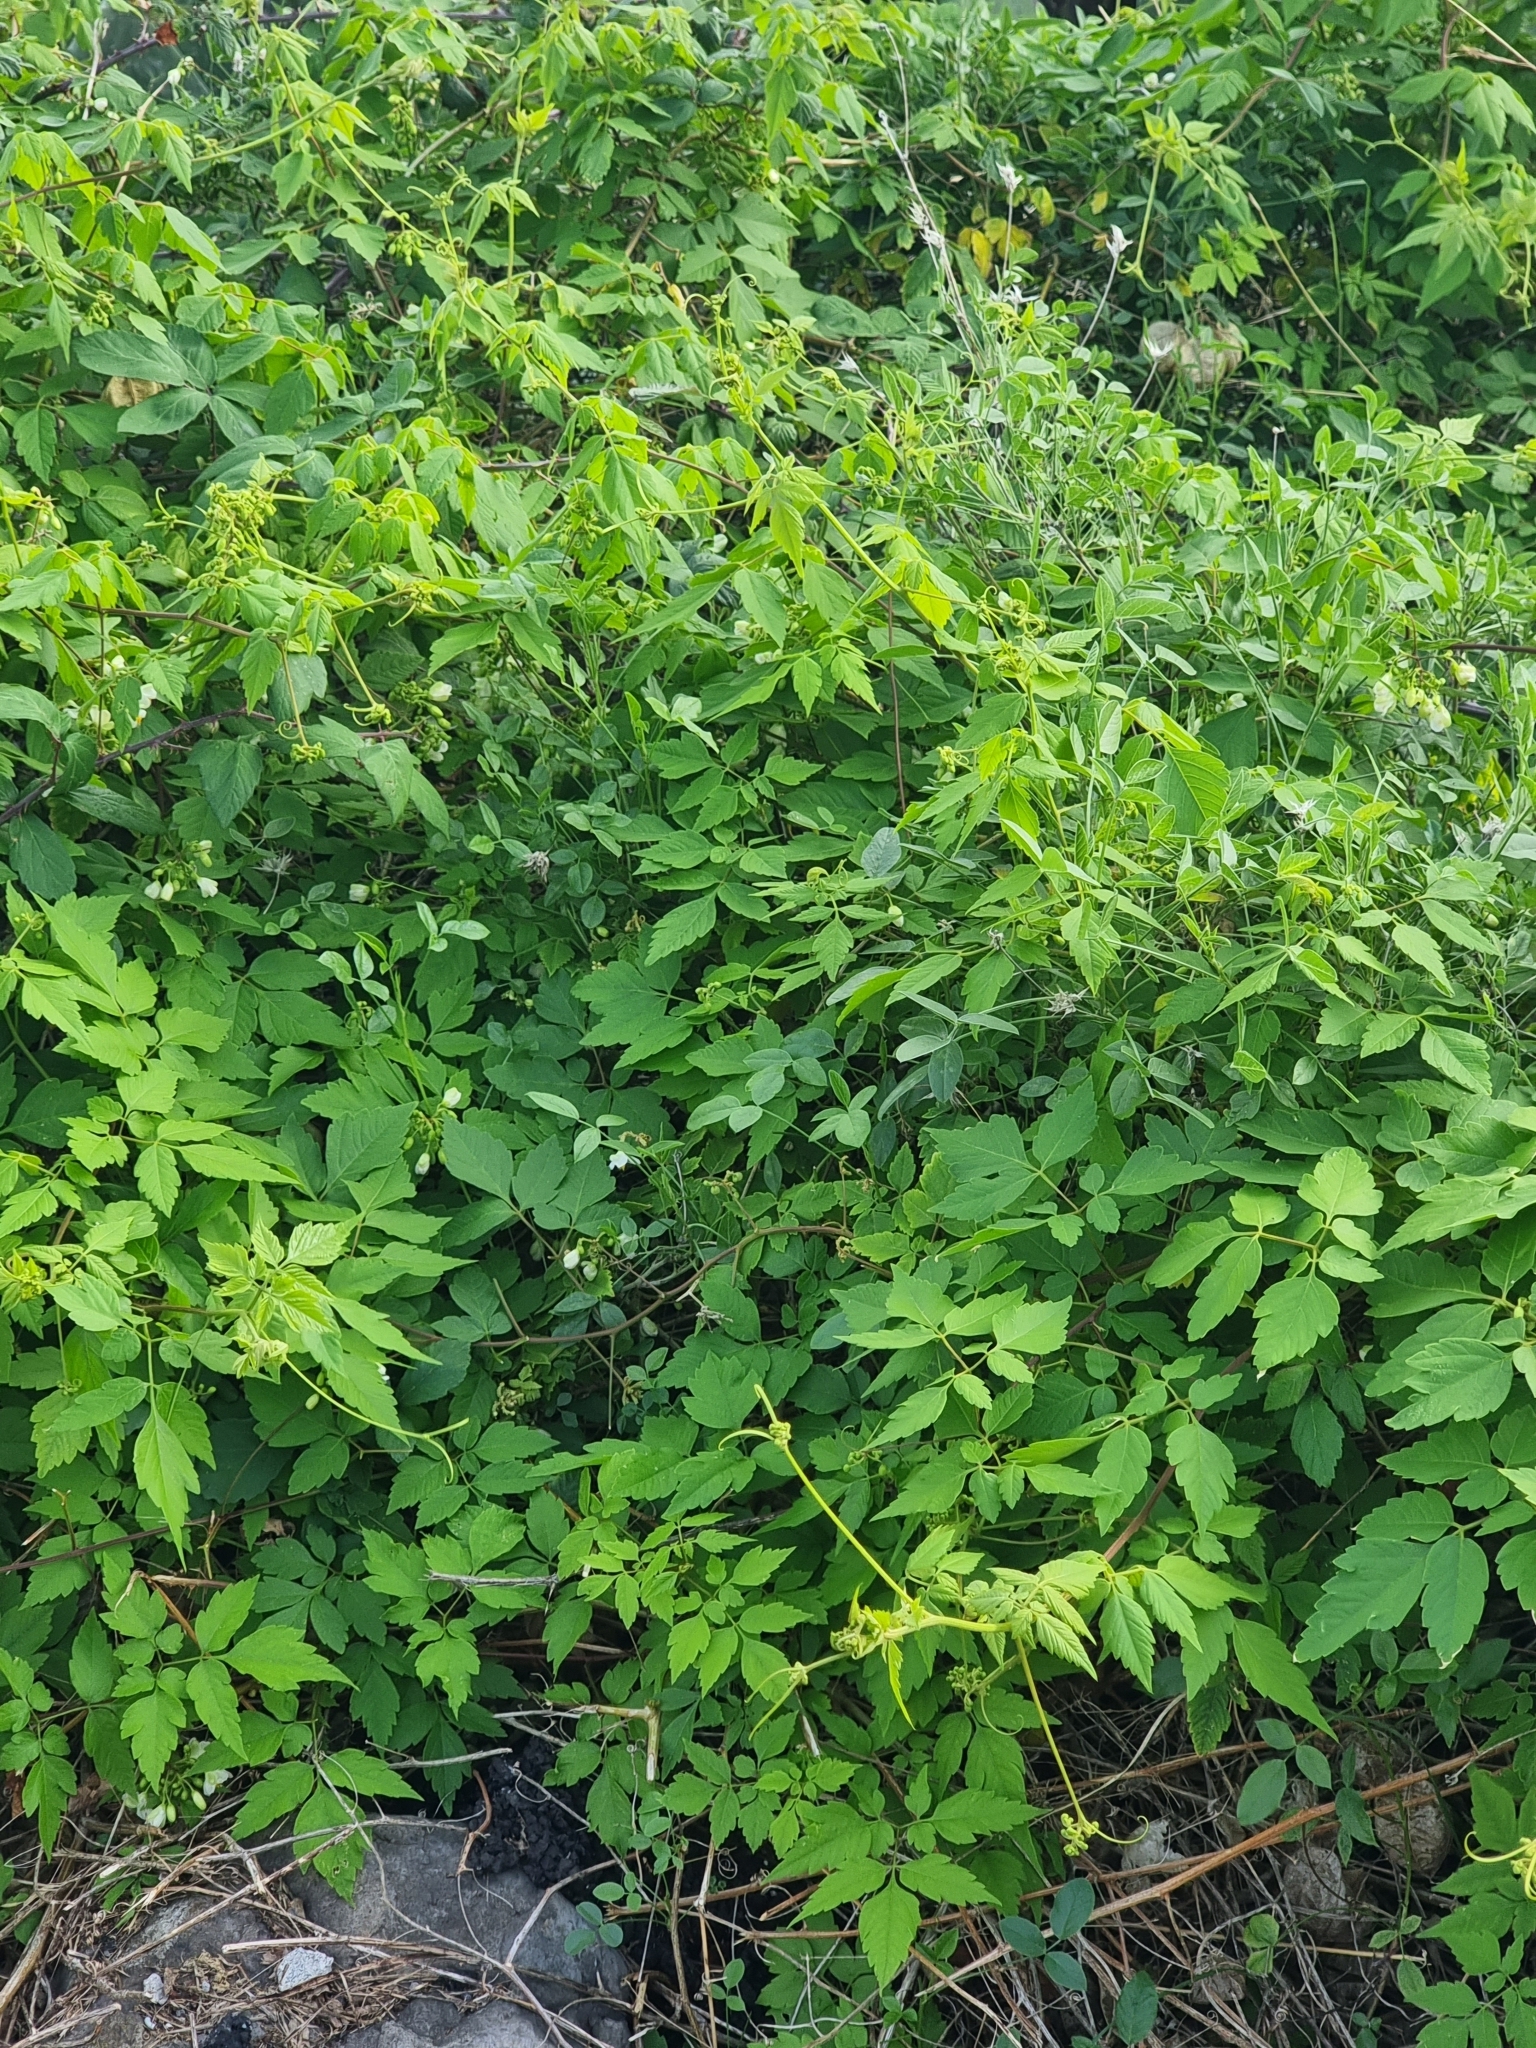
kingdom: Plantae
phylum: Tracheophyta
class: Magnoliopsida
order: Sapindales
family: Sapindaceae
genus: Cardiospermum
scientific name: Cardiospermum grandiflorum
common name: Balloon vine
